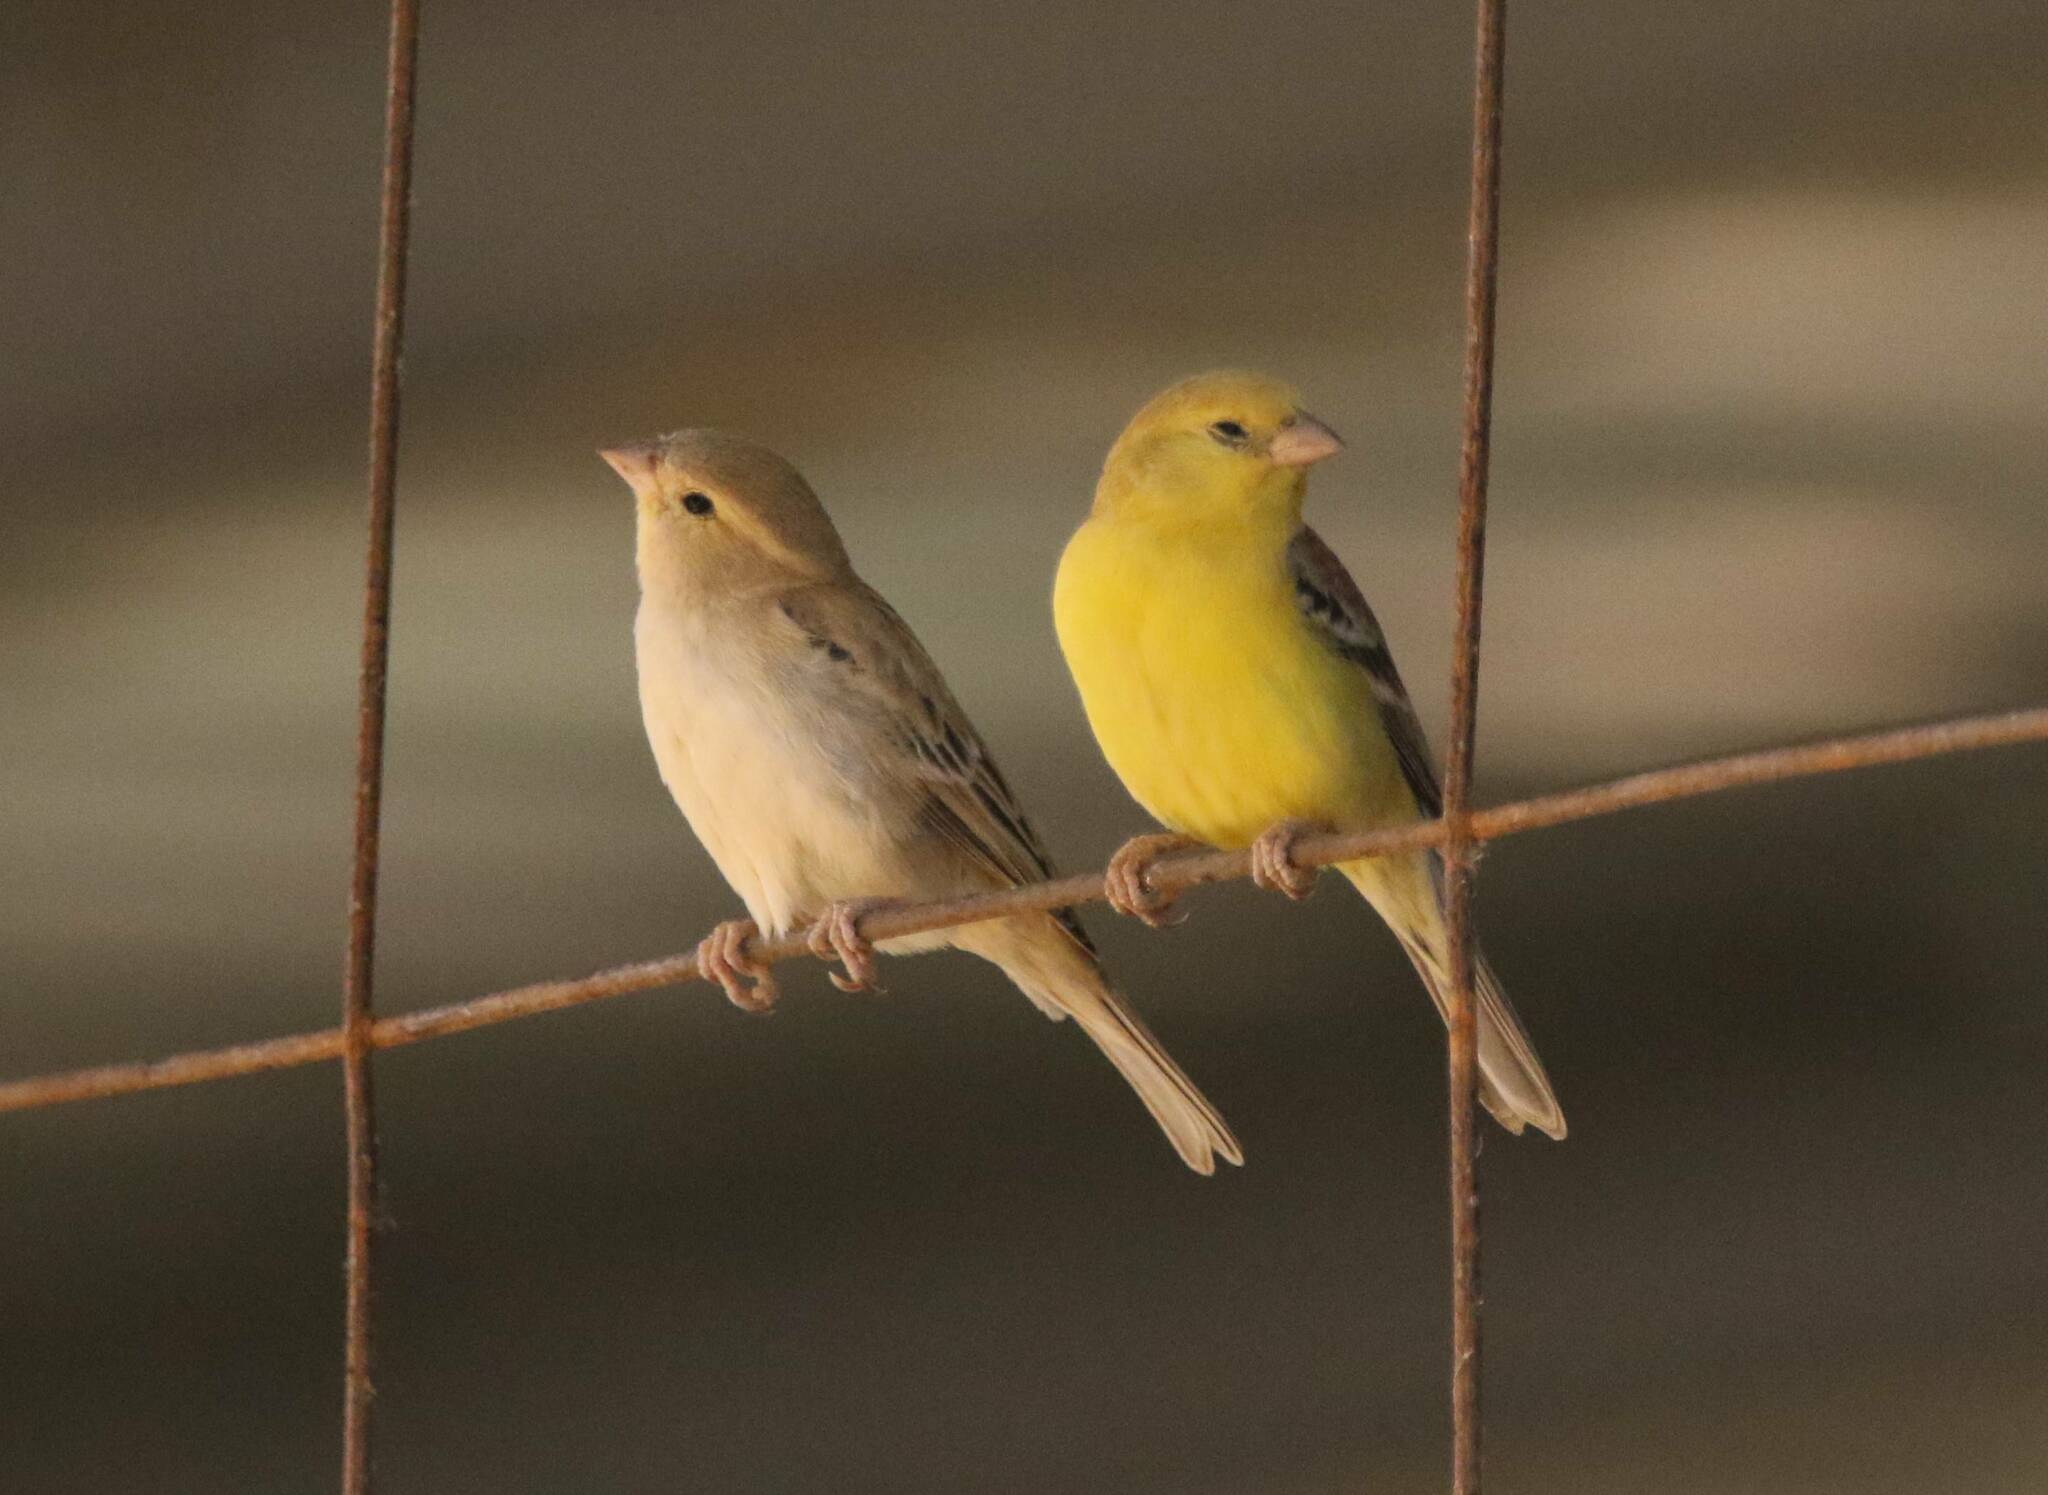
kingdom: Animalia
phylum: Chordata
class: Aves
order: Passeriformes
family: Passeridae
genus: Passer
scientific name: Passer luteus
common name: Sudan golden sparrow
